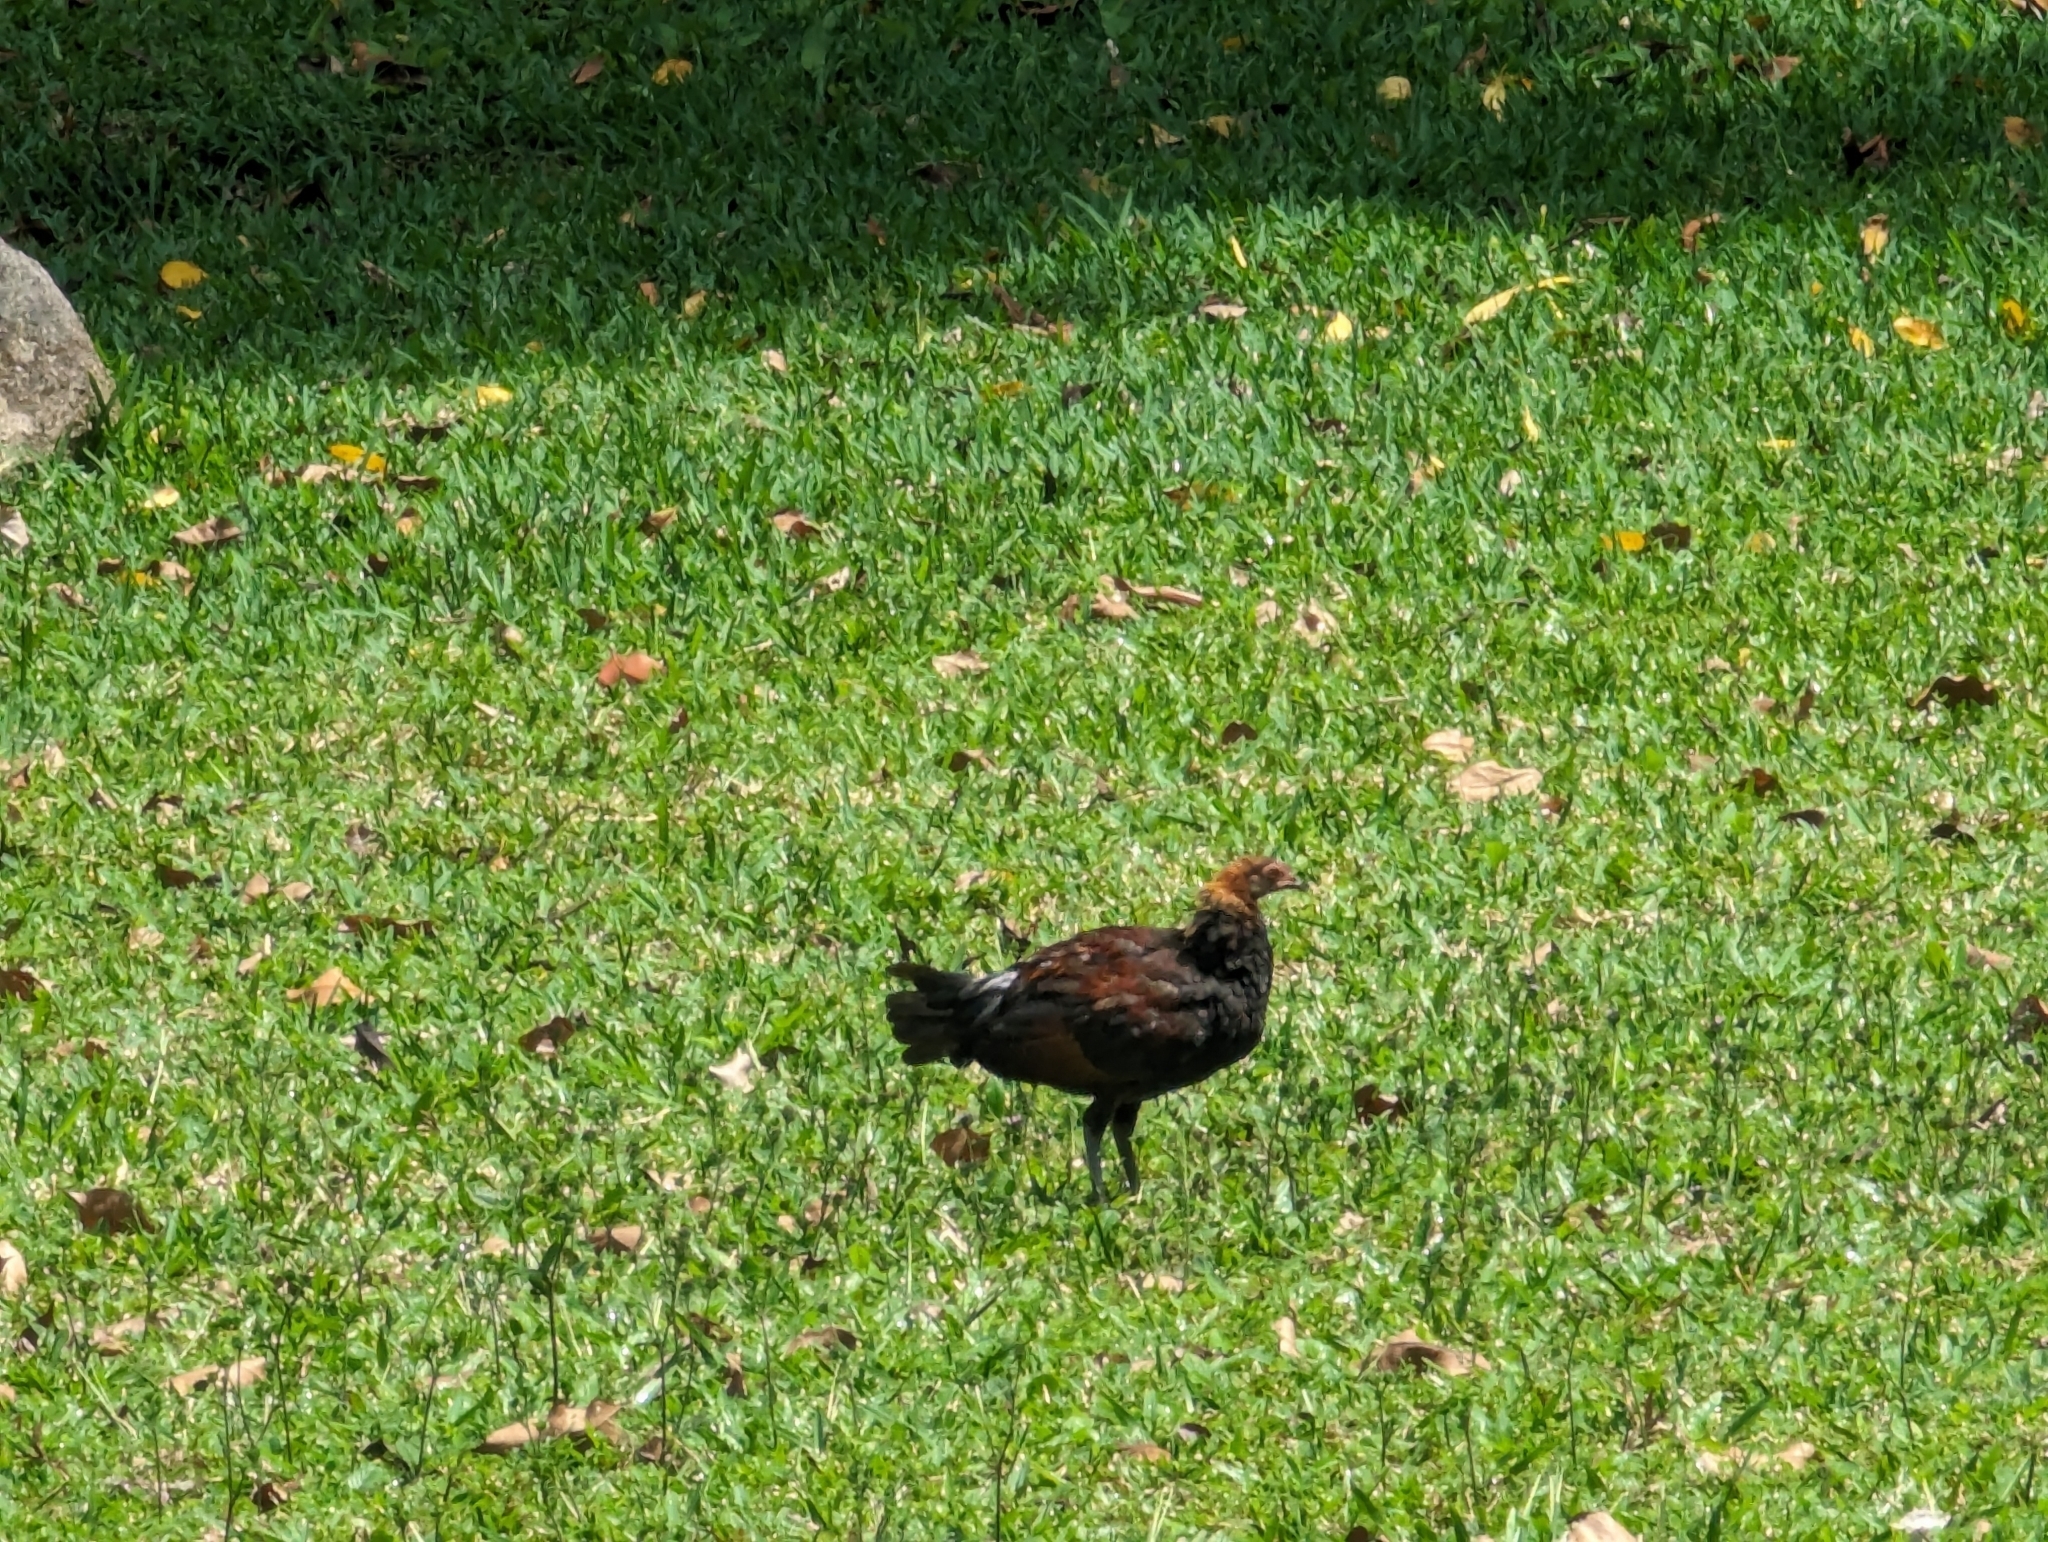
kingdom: Animalia
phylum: Chordata
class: Aves
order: Galliformes
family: Phasianidae
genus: Gallus
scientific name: Gallus gallus
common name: Red junglefowl
